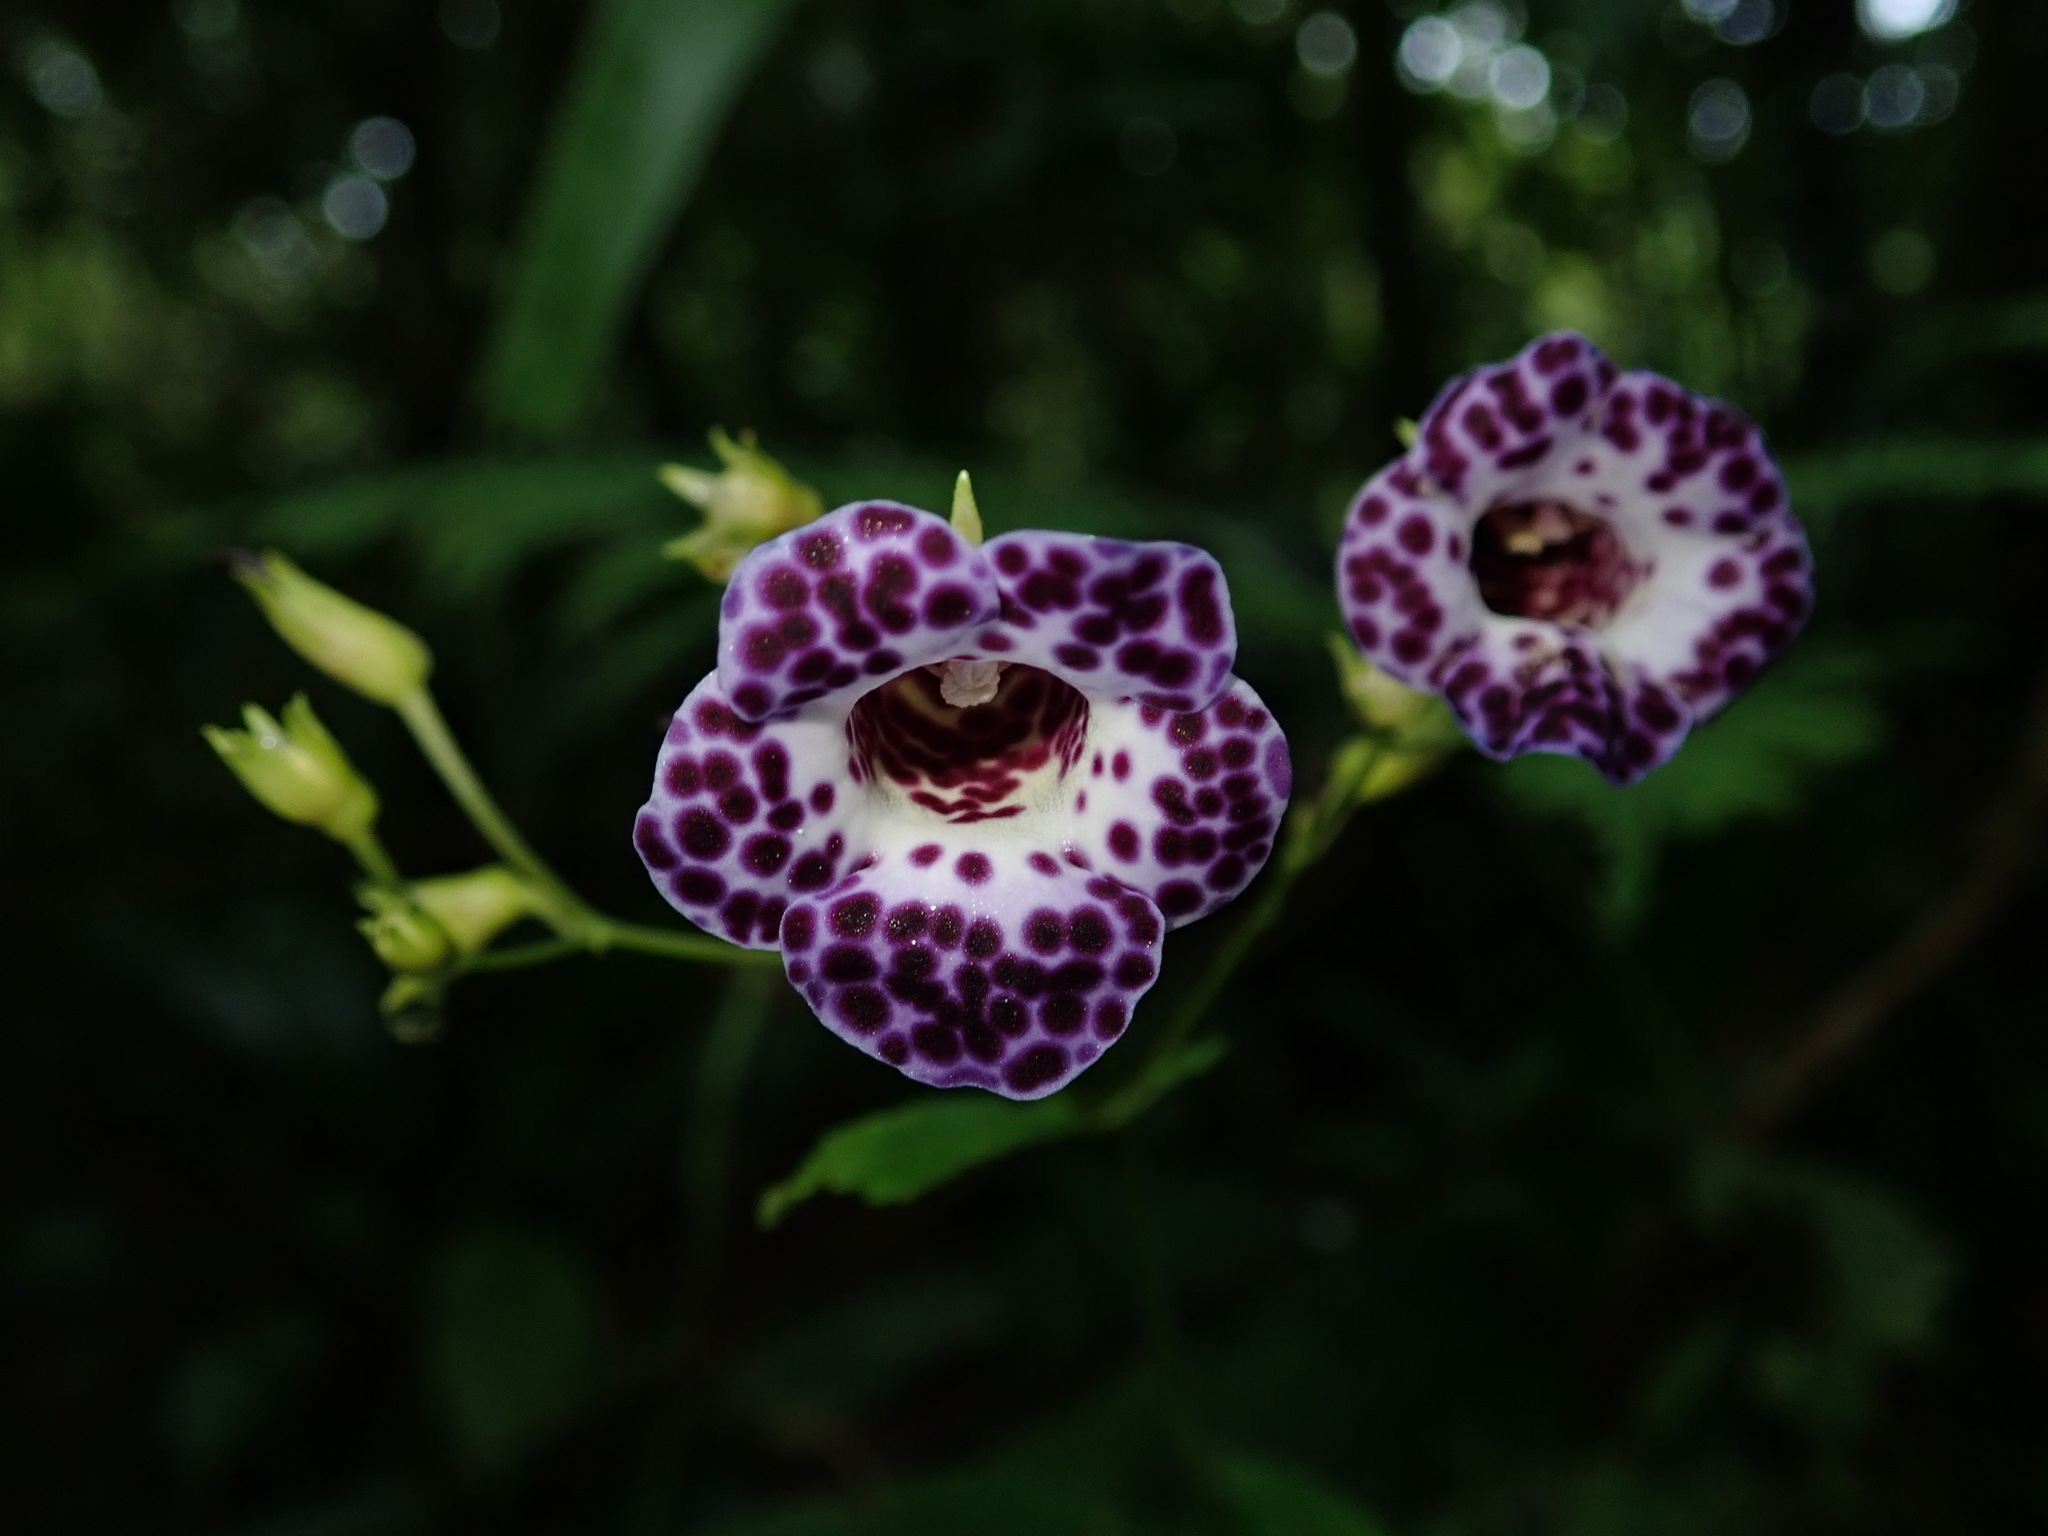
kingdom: Plantae
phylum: Tracheophyta
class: Magnoliopsida
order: Lamiales
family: Gesneriaceae
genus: Monopyle
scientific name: Monopyle paniculata
